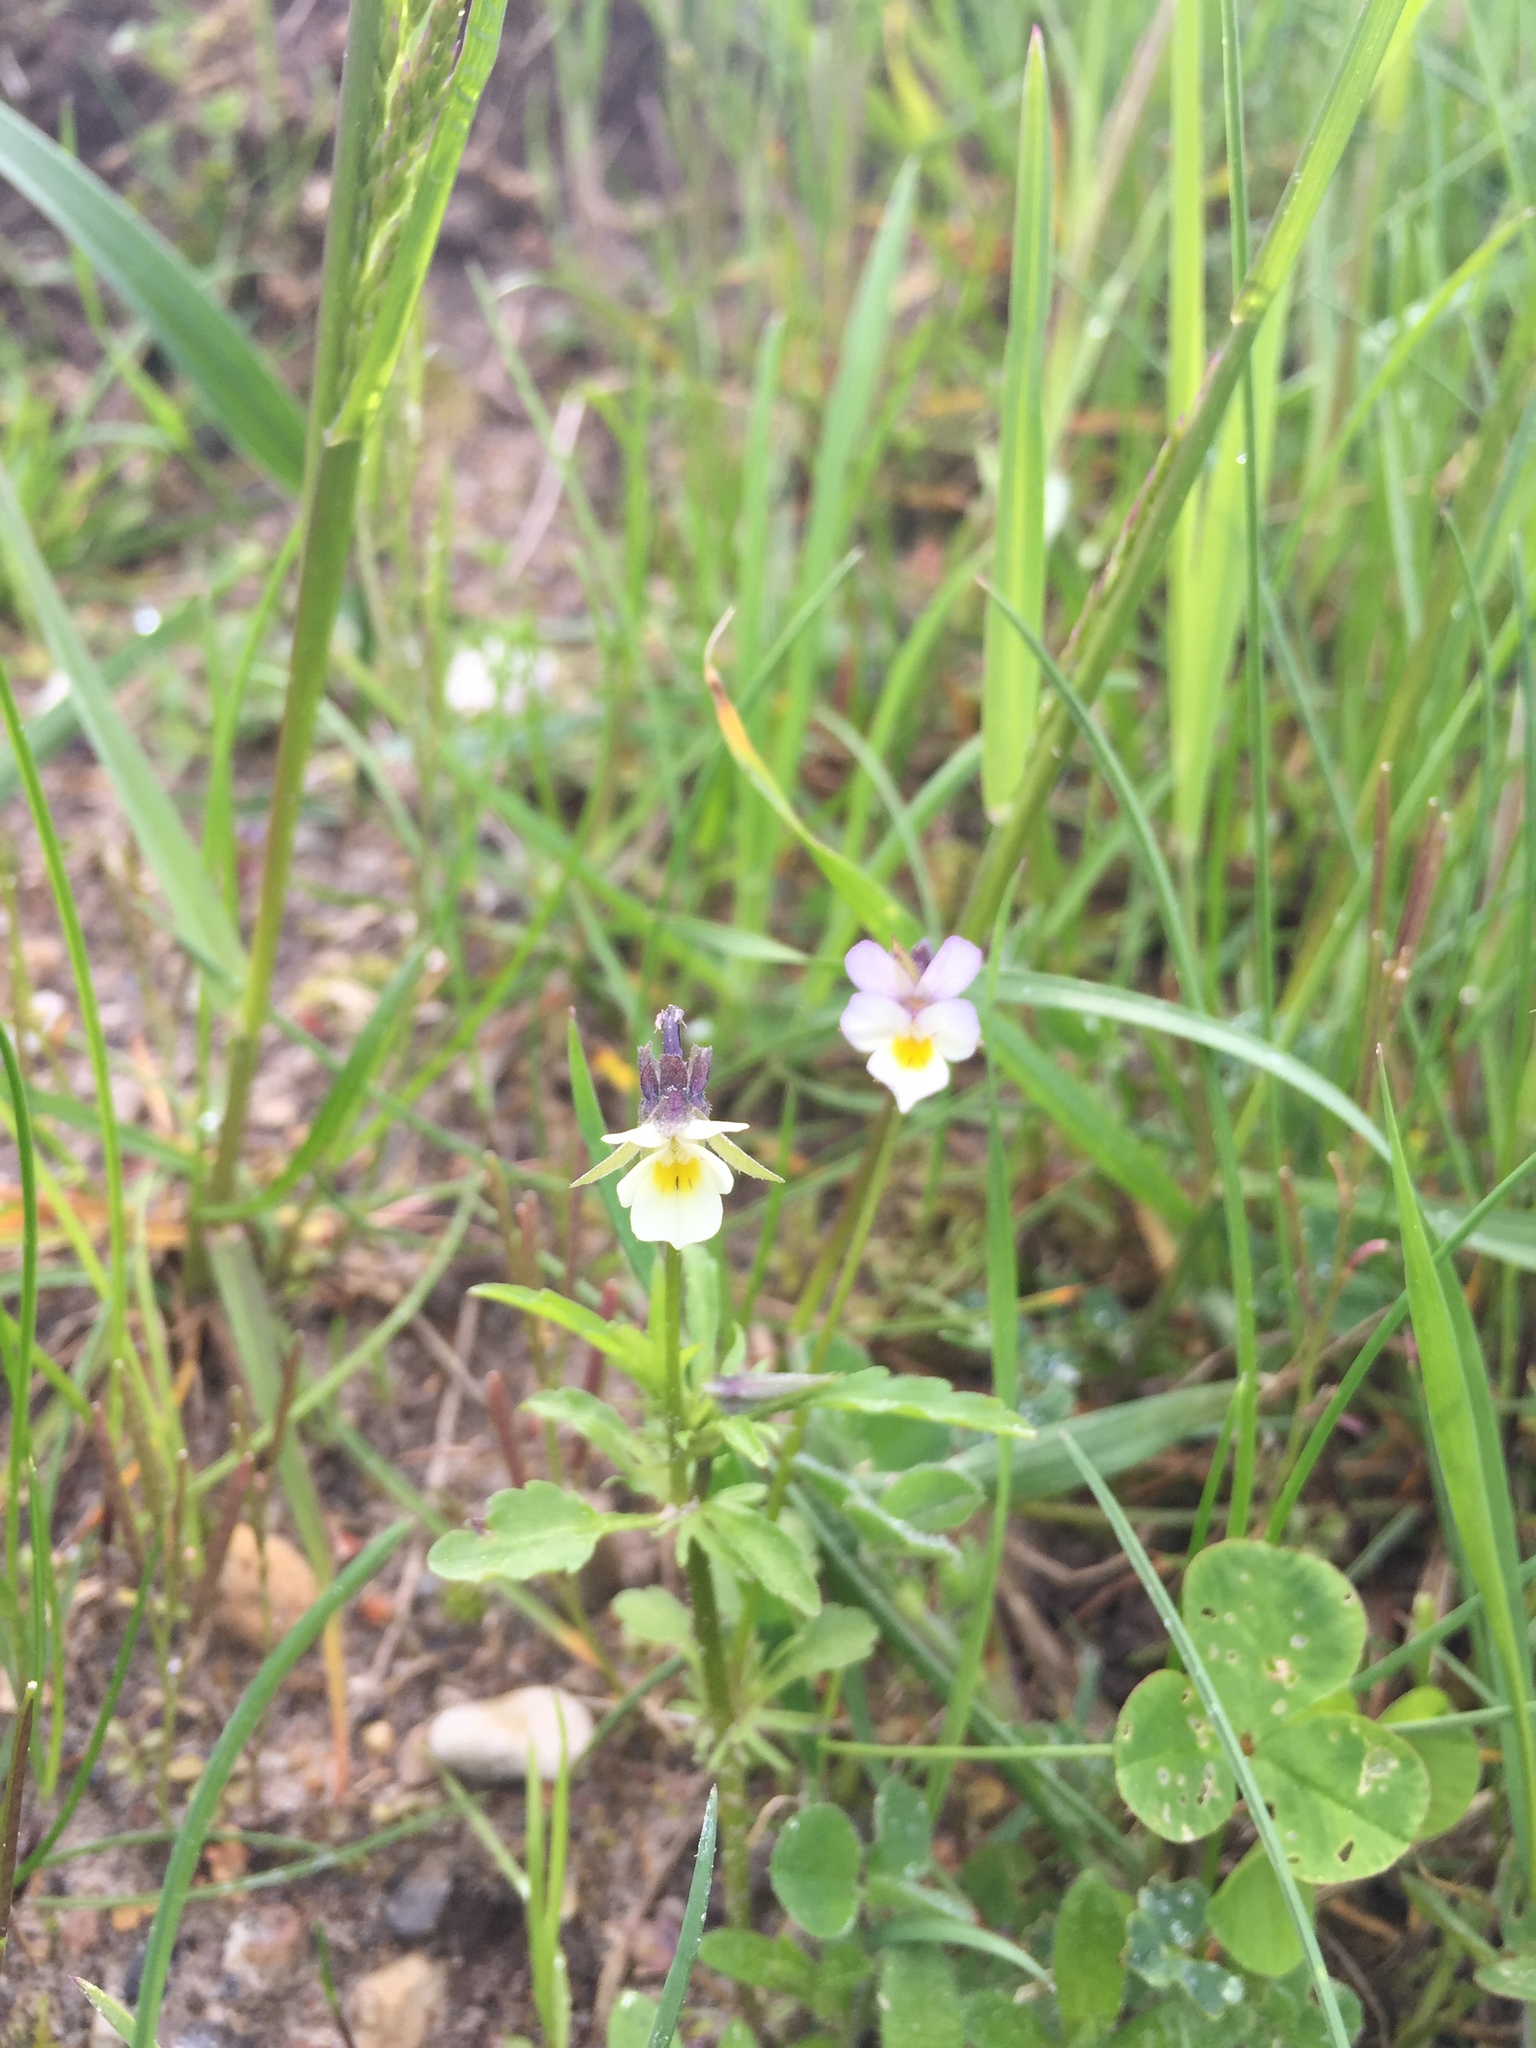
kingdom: Plantae
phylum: Tracheophyta
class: Magnoliopsida
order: Malpighiales
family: Violaceae
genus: Viola
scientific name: Viola arvensis
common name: Field pansy
